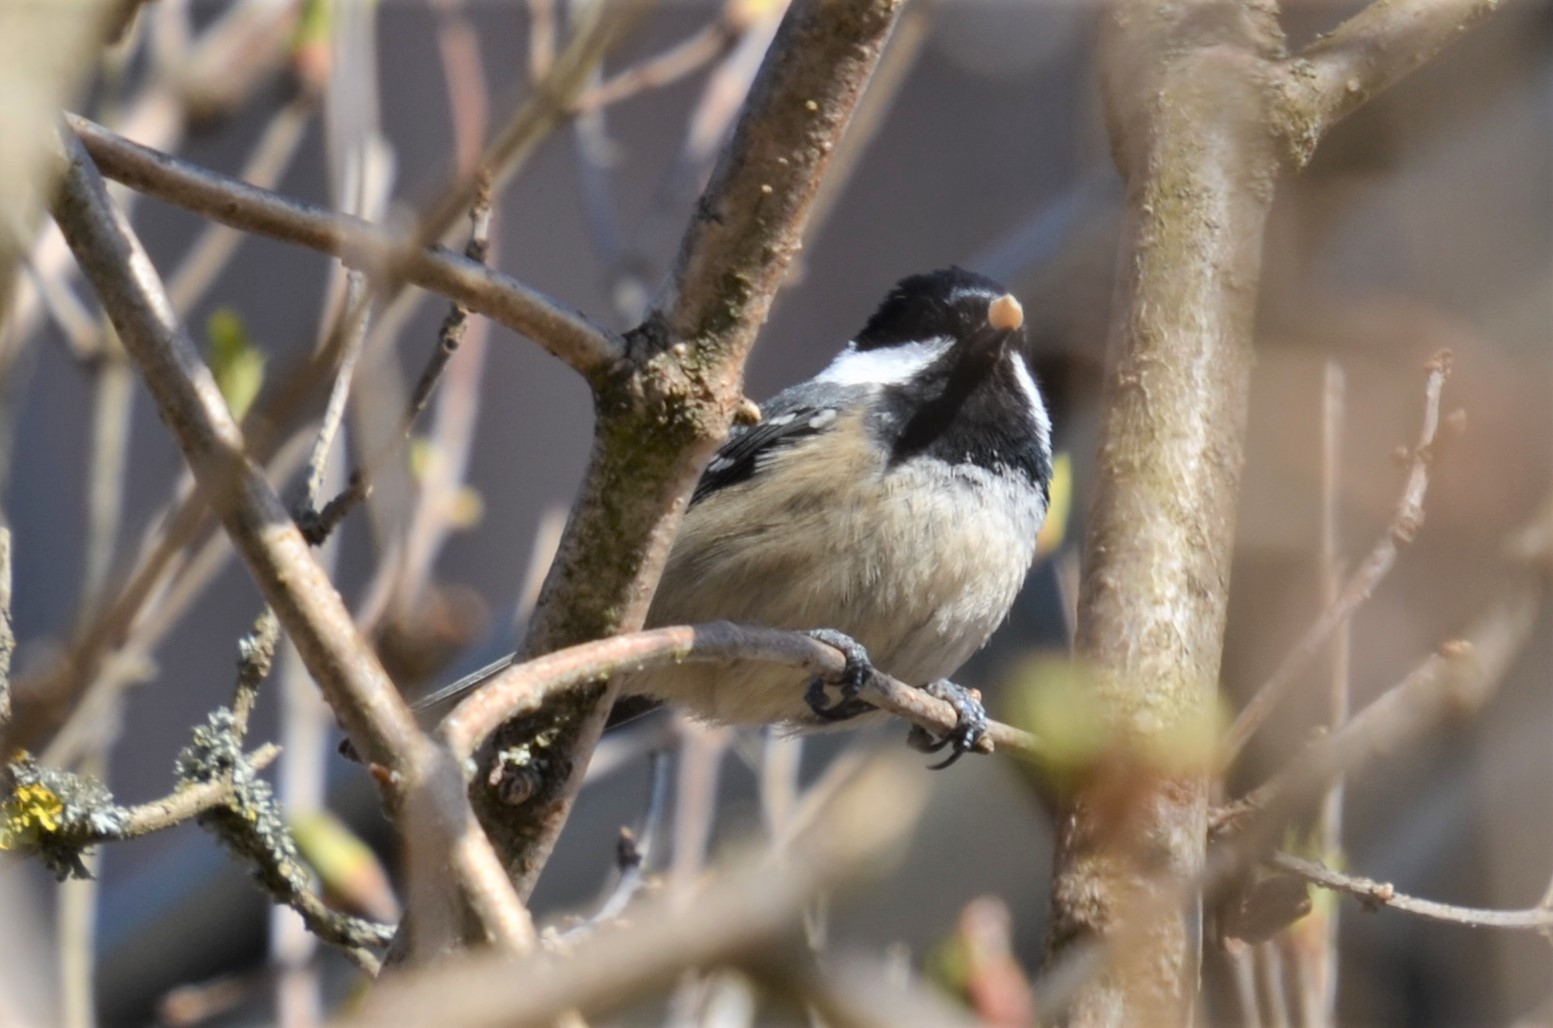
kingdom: Animalia
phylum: Chordata
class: Aves
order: Passeriformes
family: Paridae
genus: Periparus
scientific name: Periparus ater
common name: Coal tit
